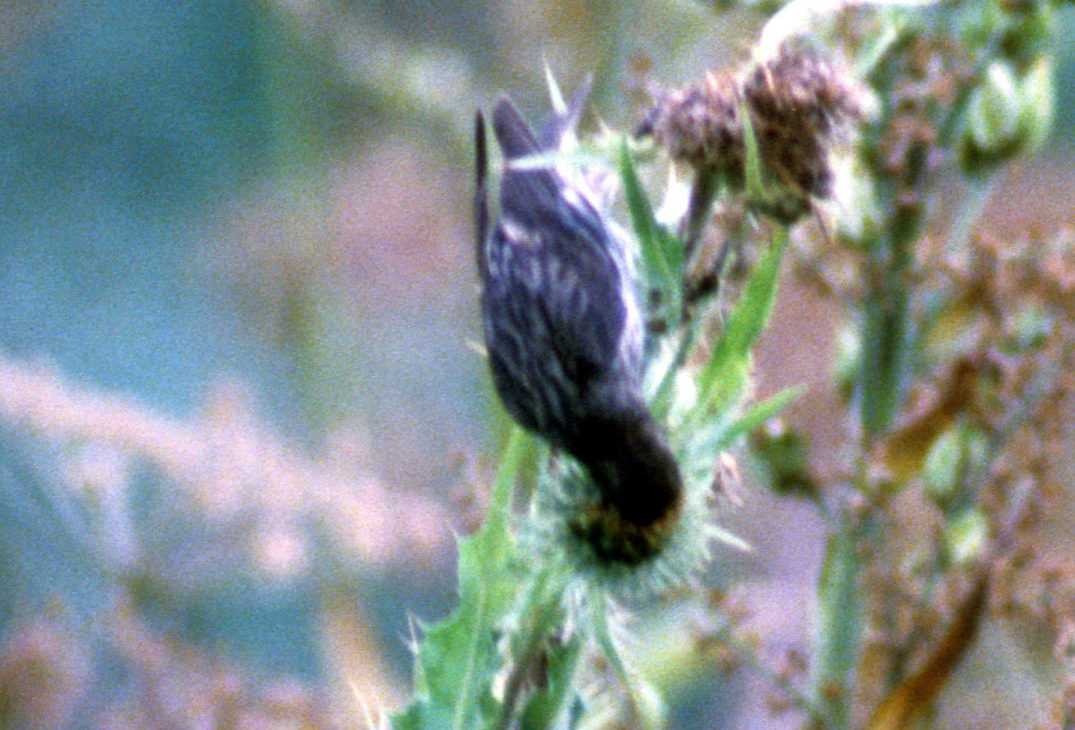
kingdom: Animalia
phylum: Chordata
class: Aves
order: Passeriformes
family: Fringillidae
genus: Spinus
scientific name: Spinus pinus
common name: Pine siskin
